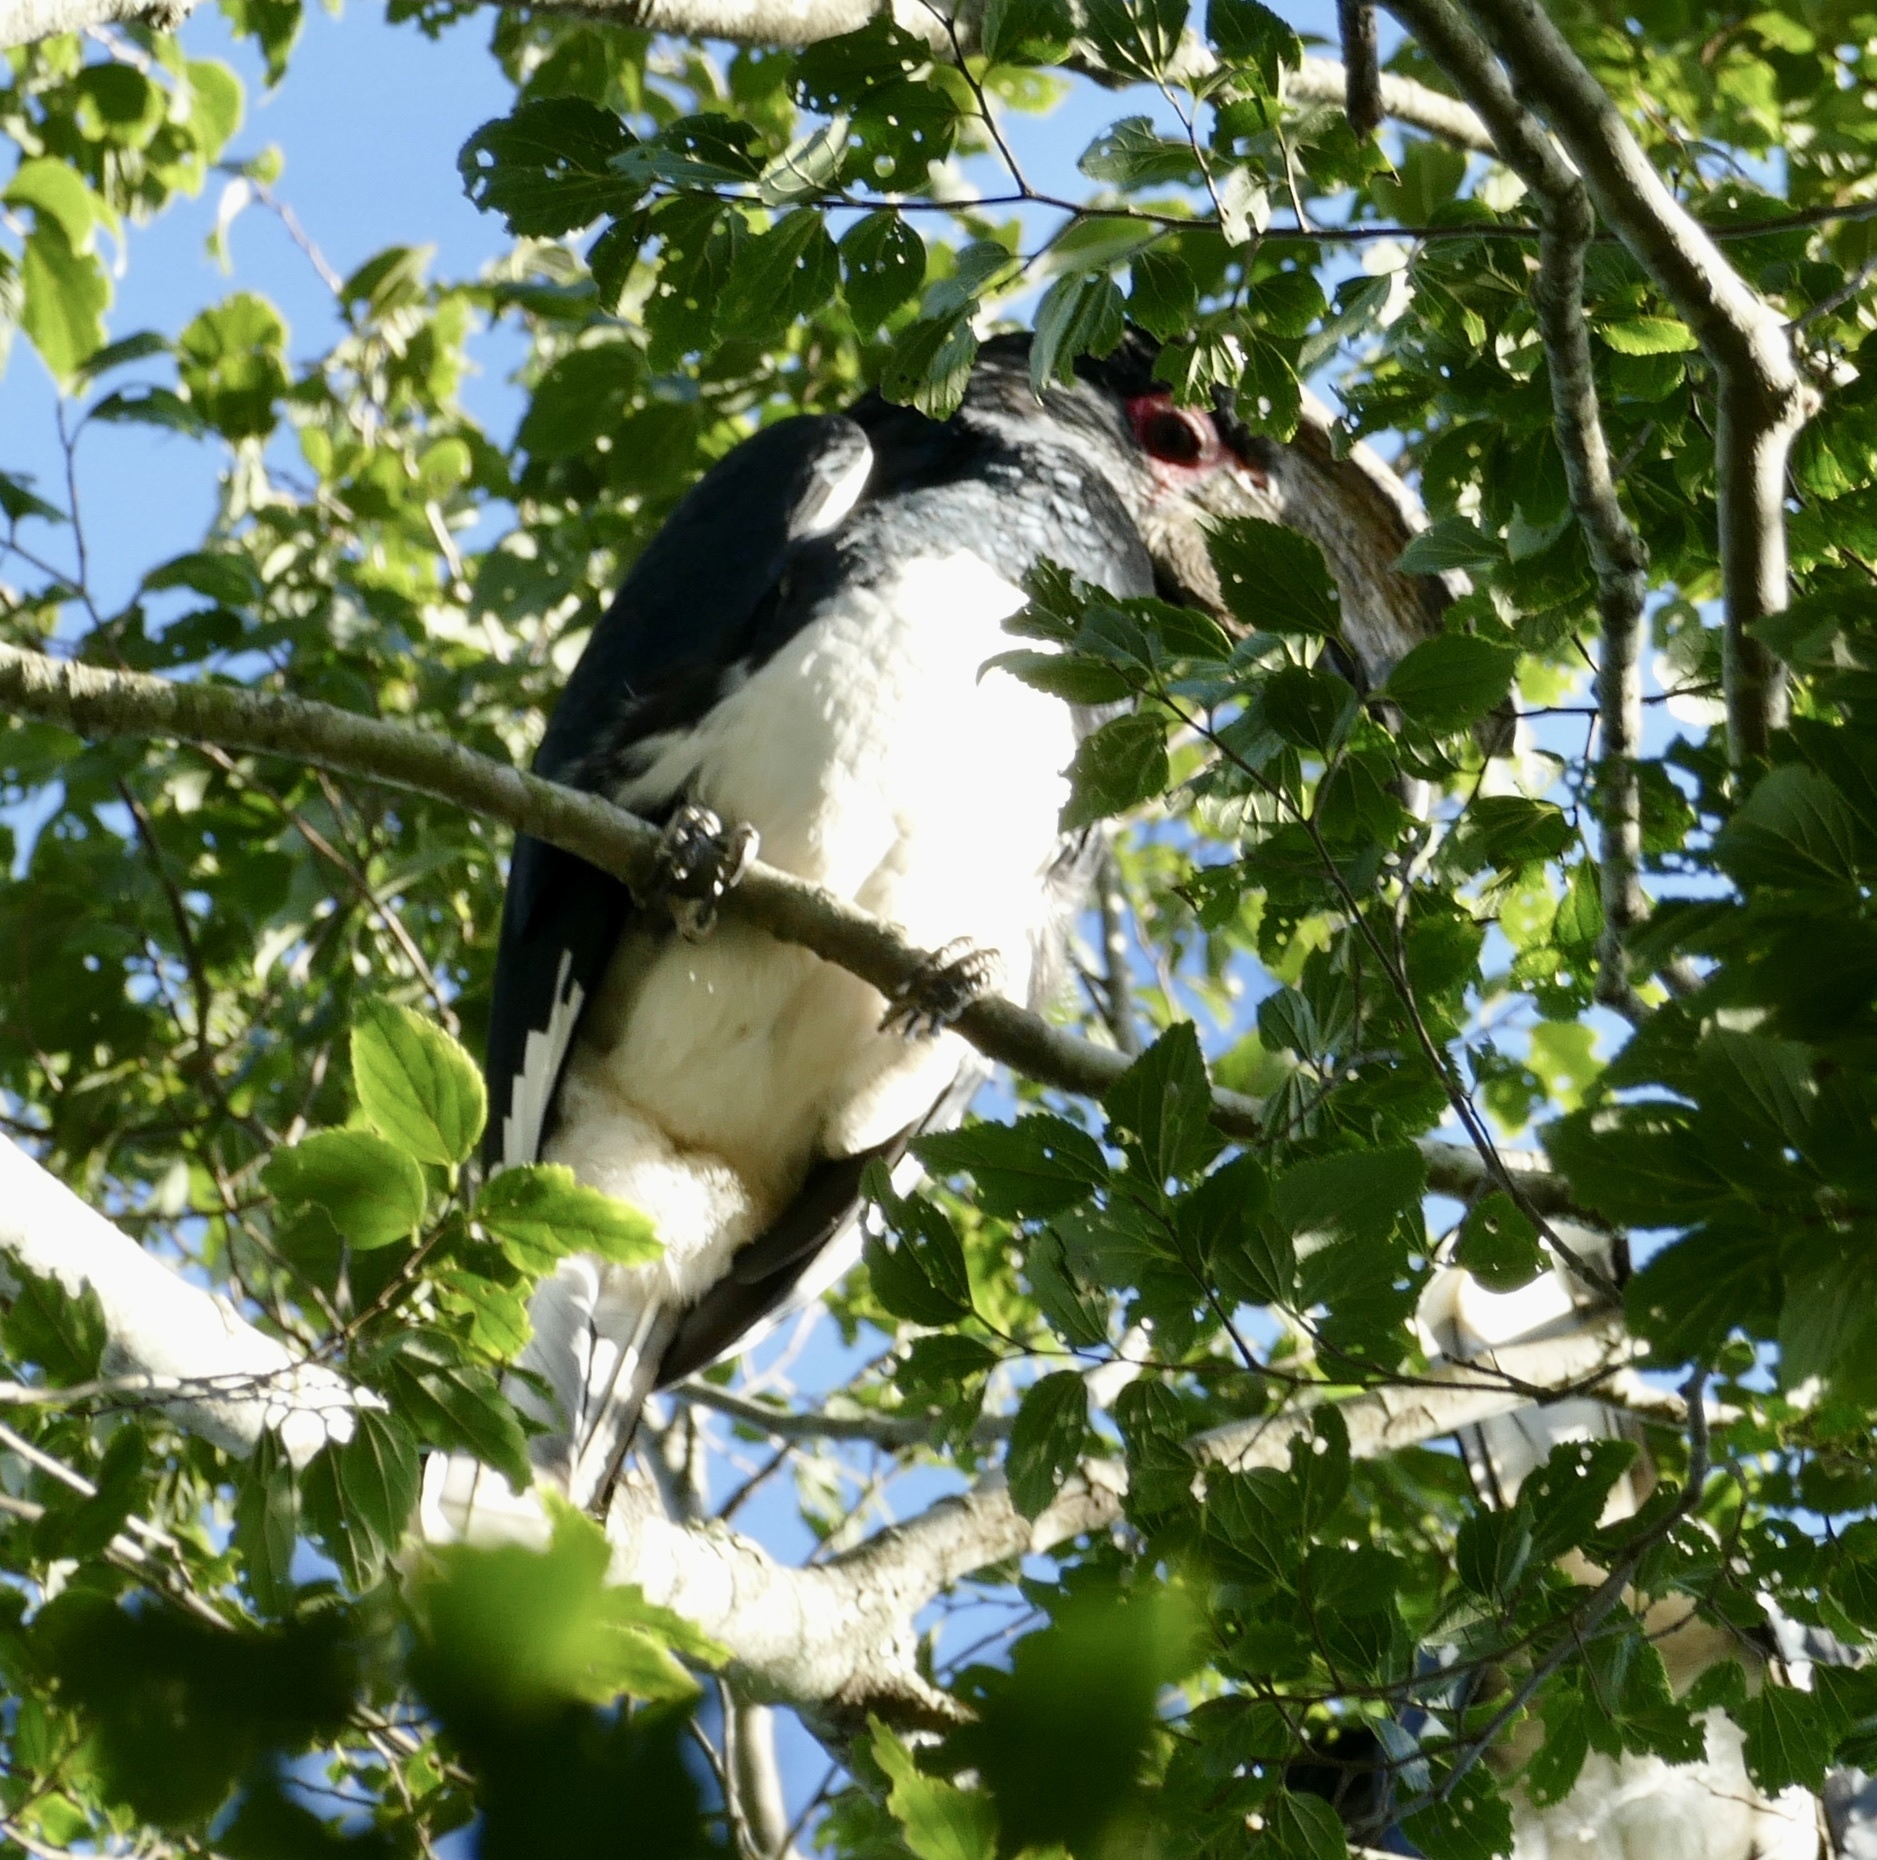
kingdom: Animalia
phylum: Chordata
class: Aves
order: Bucerotiformes
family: Bucerotidae
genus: Bycanistes
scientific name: Bycanistes bucinator
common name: Trumpeter hornbill
